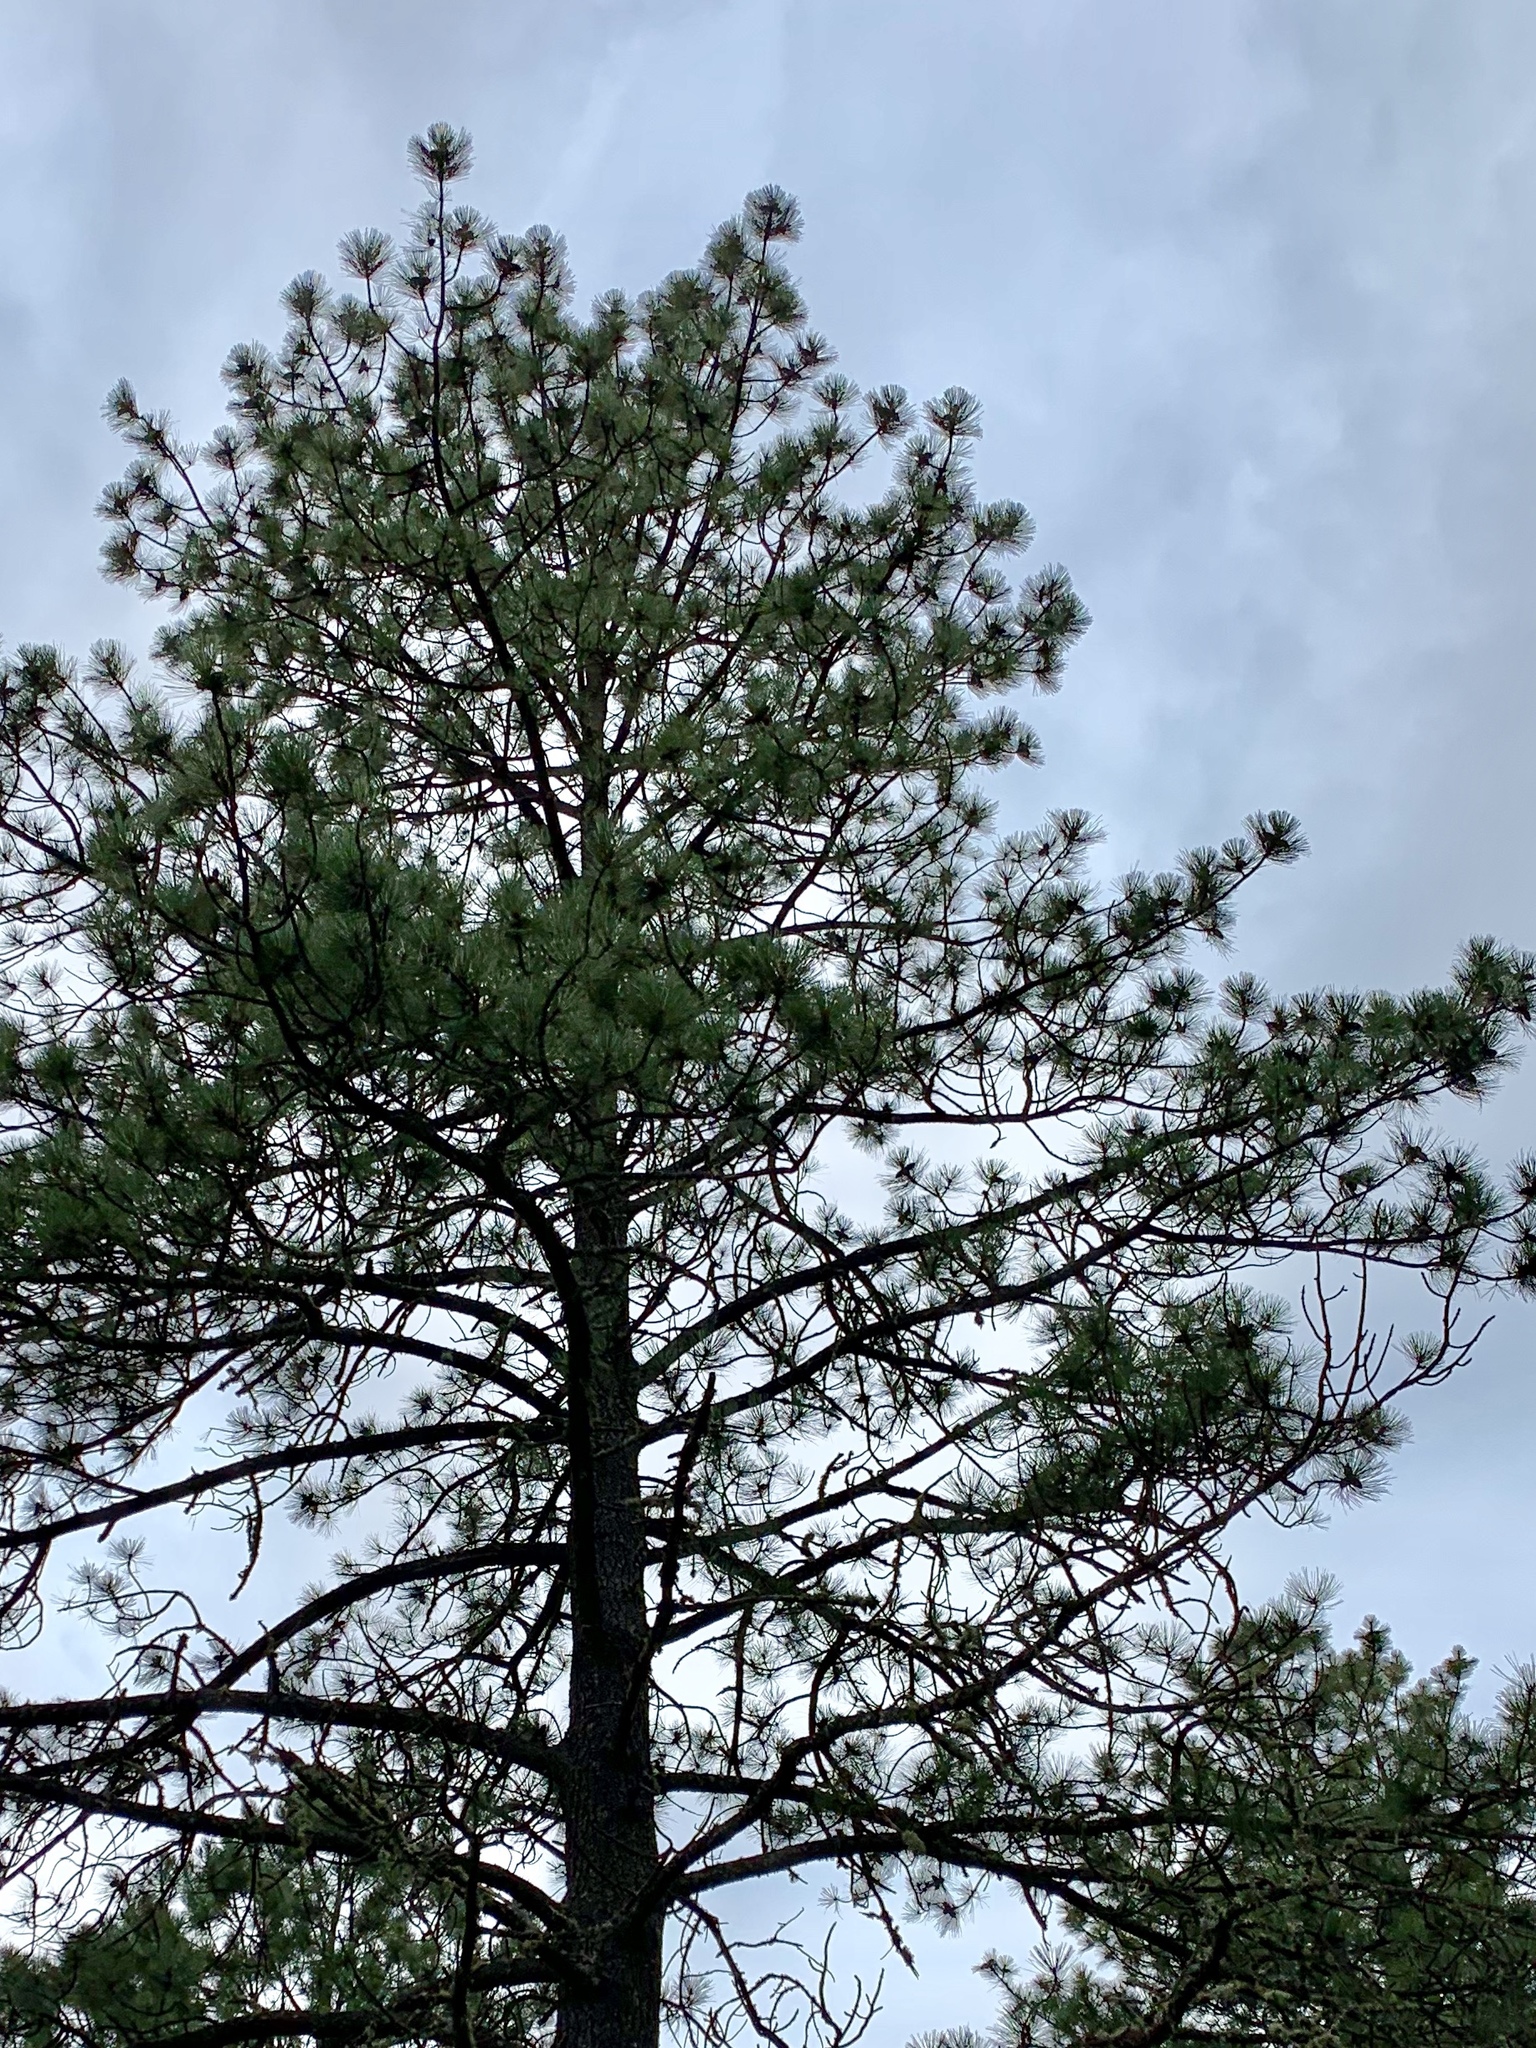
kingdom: Plantae
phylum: Tracheophyta
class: Pinopsida
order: Pinales
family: Pinaceae
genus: Pinus
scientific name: Pinus ponderosa
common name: Western yellow-pine
